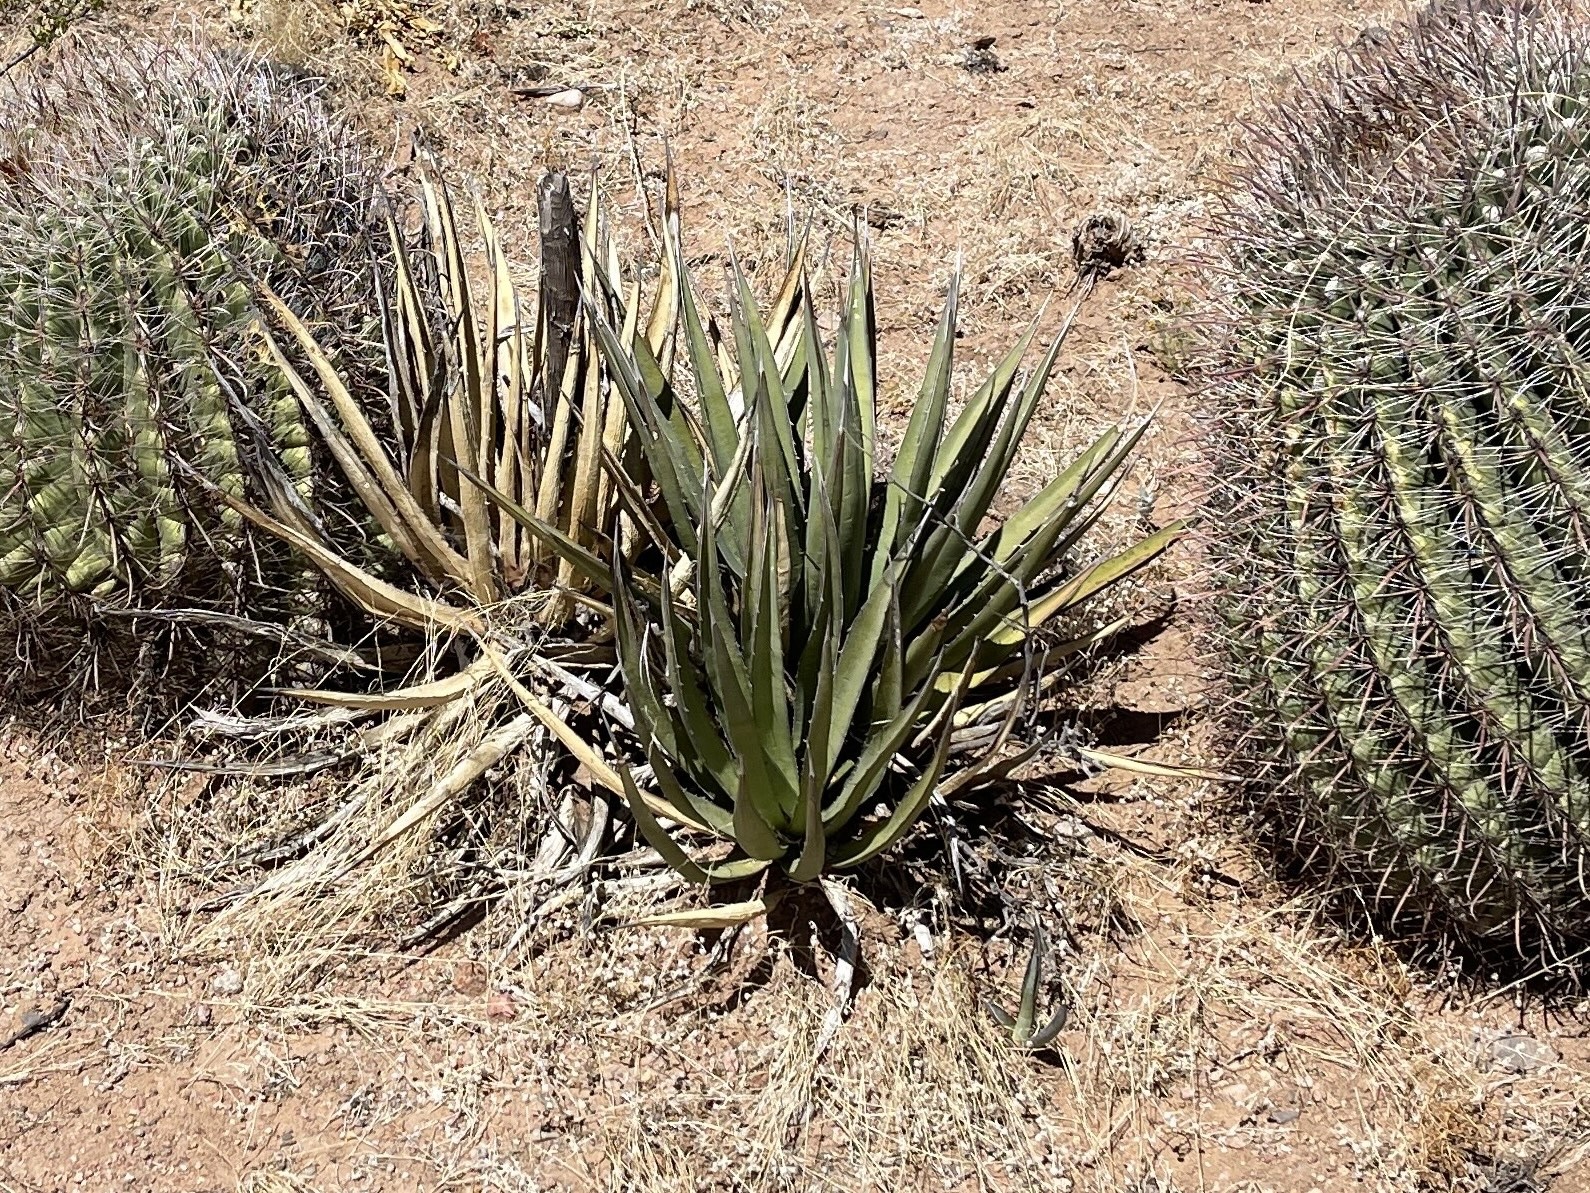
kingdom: Plantae
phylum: Tracheophyta
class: Liliopsida
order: Asparagales
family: Asparagaceae
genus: Agave
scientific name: Agave lechuguilla
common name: Lecheguilla agave
